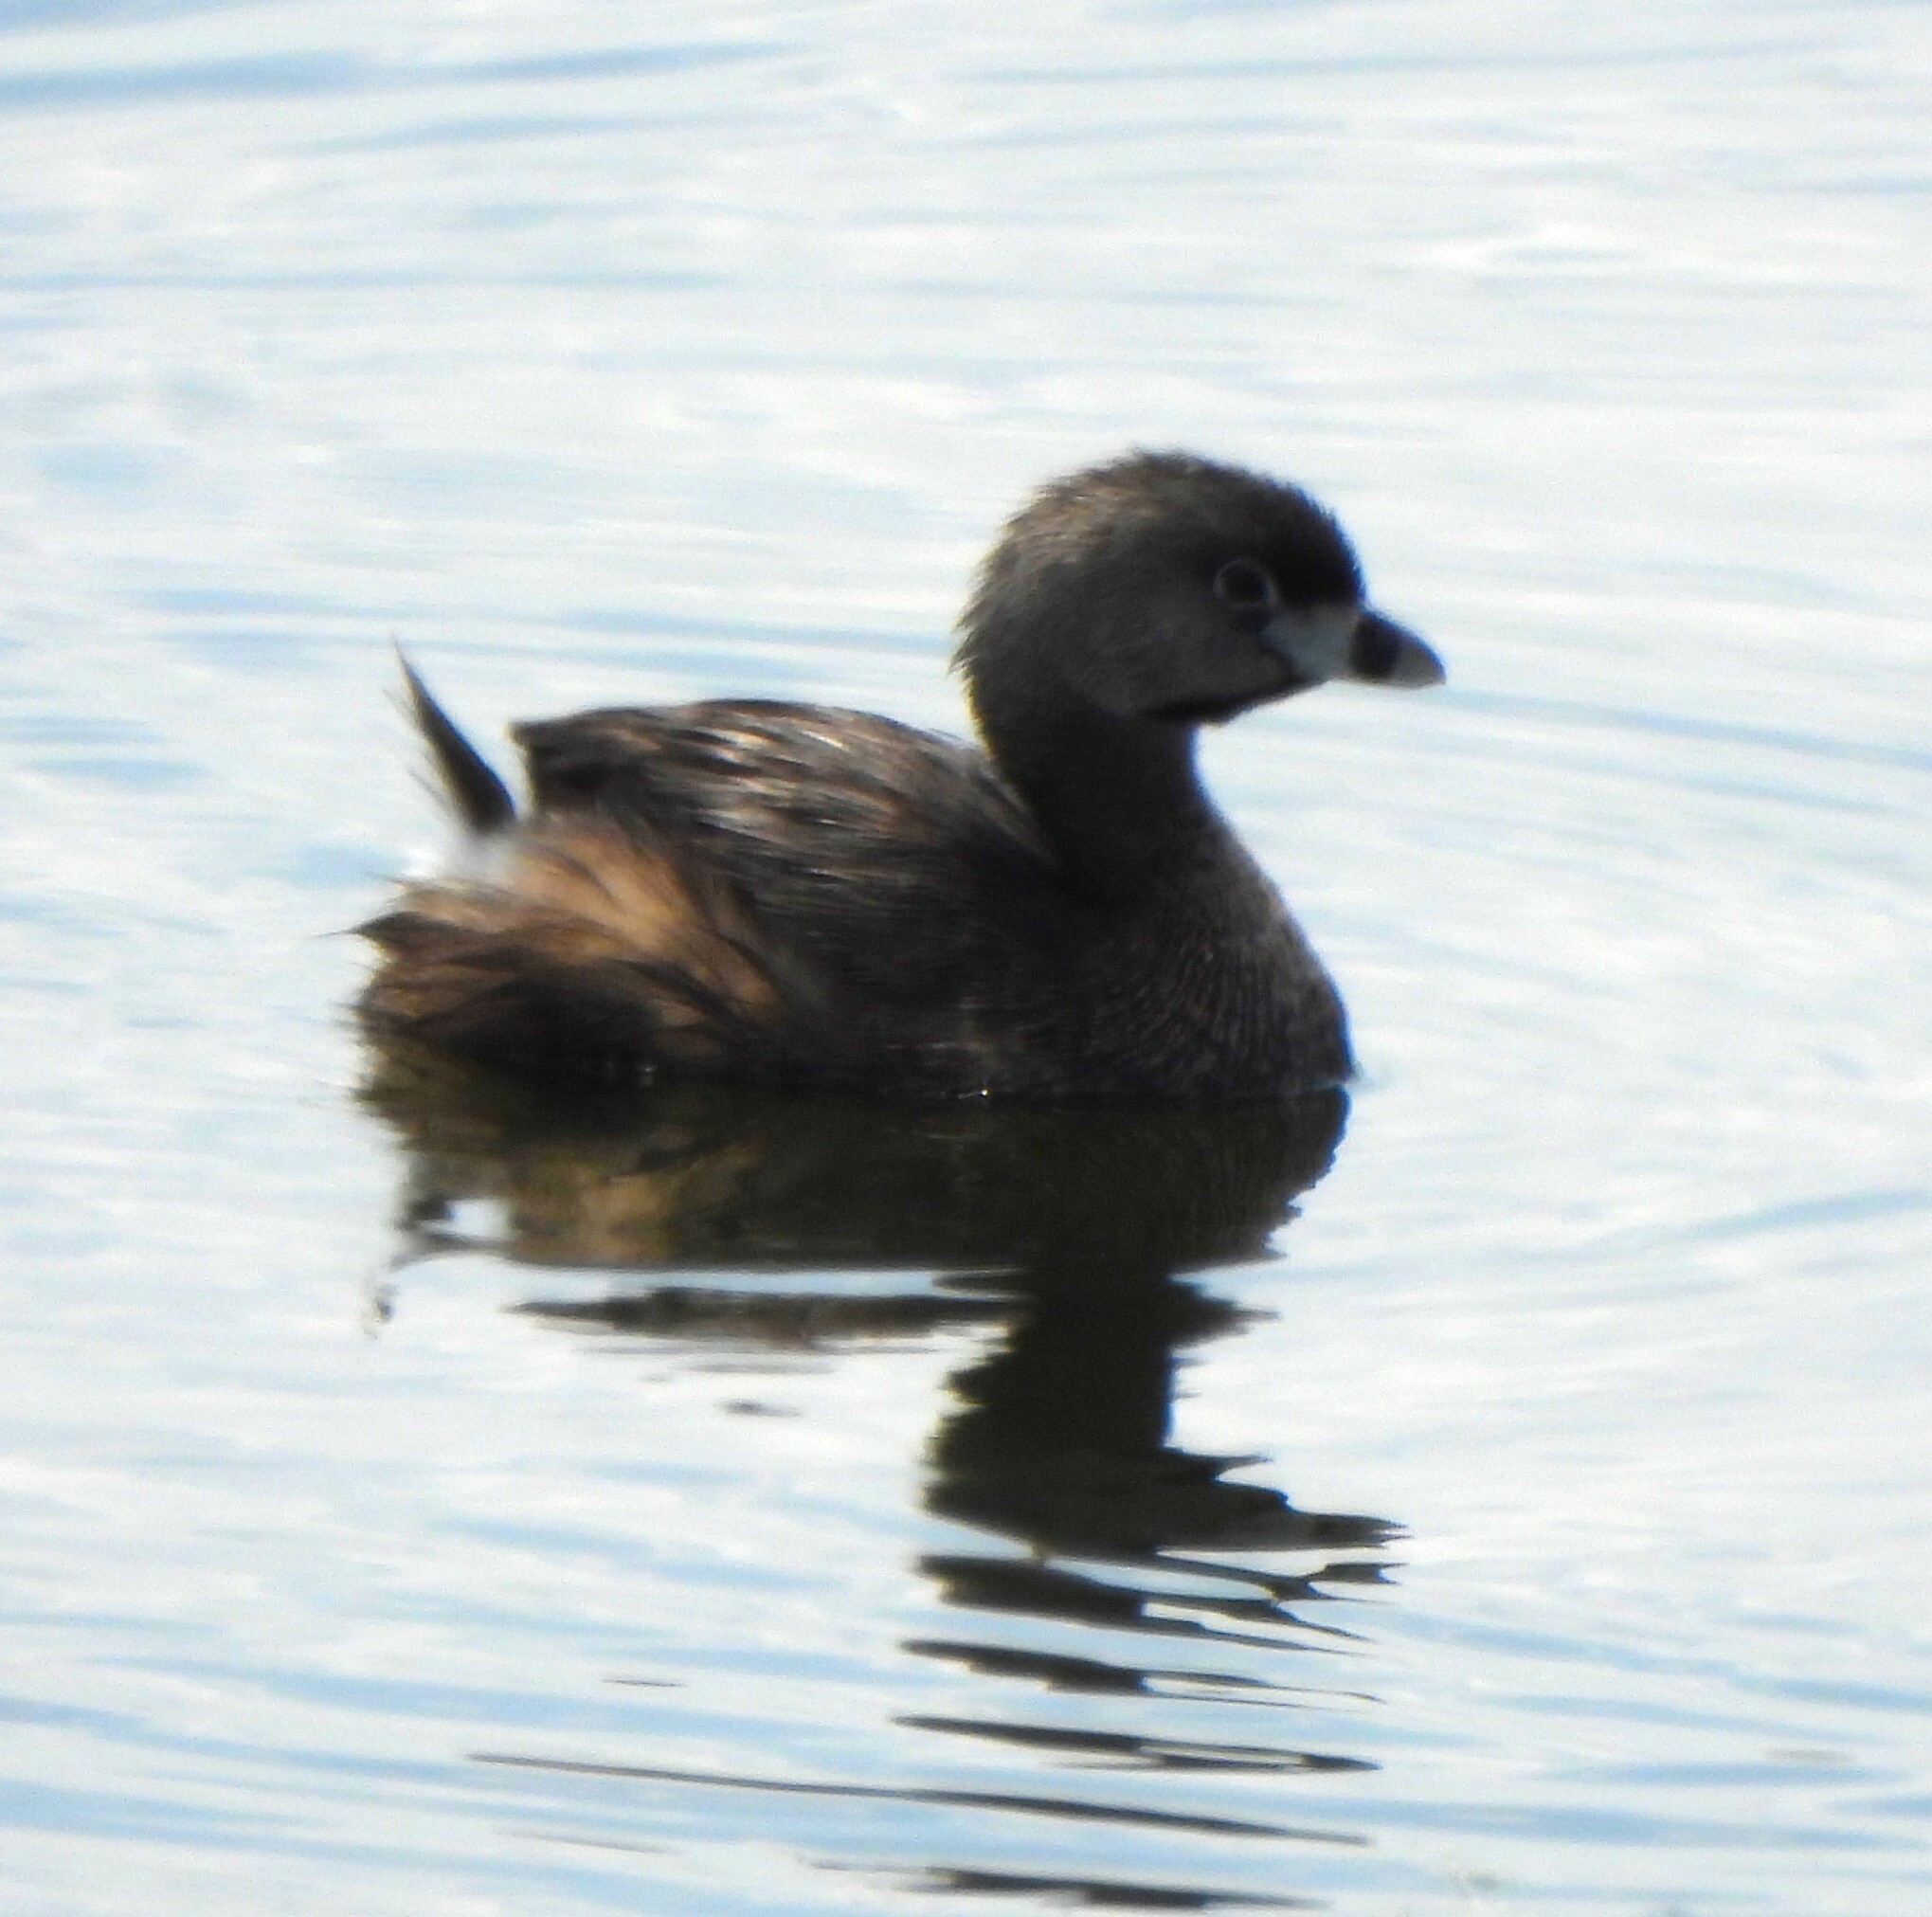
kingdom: Animalia
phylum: Chordata
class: Aves
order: Podicipediformes
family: Podicipedidae
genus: Podilymbus
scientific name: Podilymbus podiceps
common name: Pied-billed grebe
